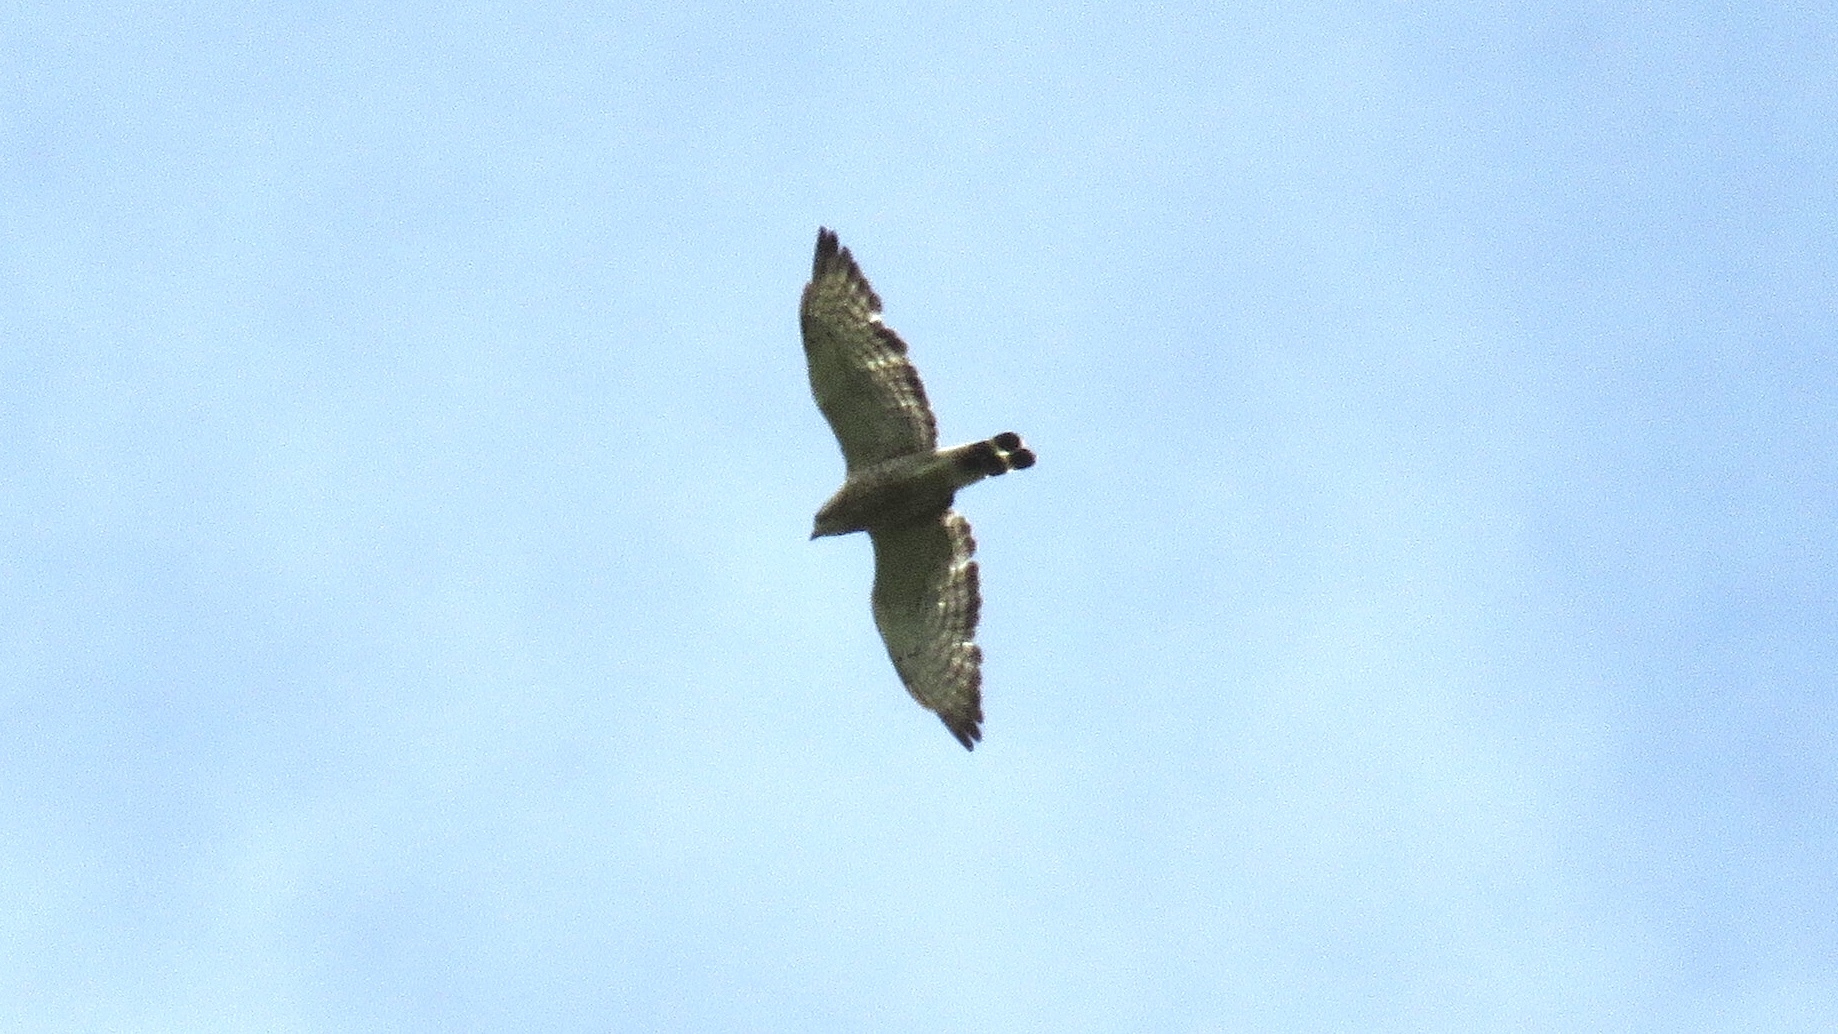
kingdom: Animalia
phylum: Chordata
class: Aves
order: Accipitriformes
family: Accipitridae
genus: Buteo
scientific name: Buteo platypterus
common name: Broad-winged hawk
